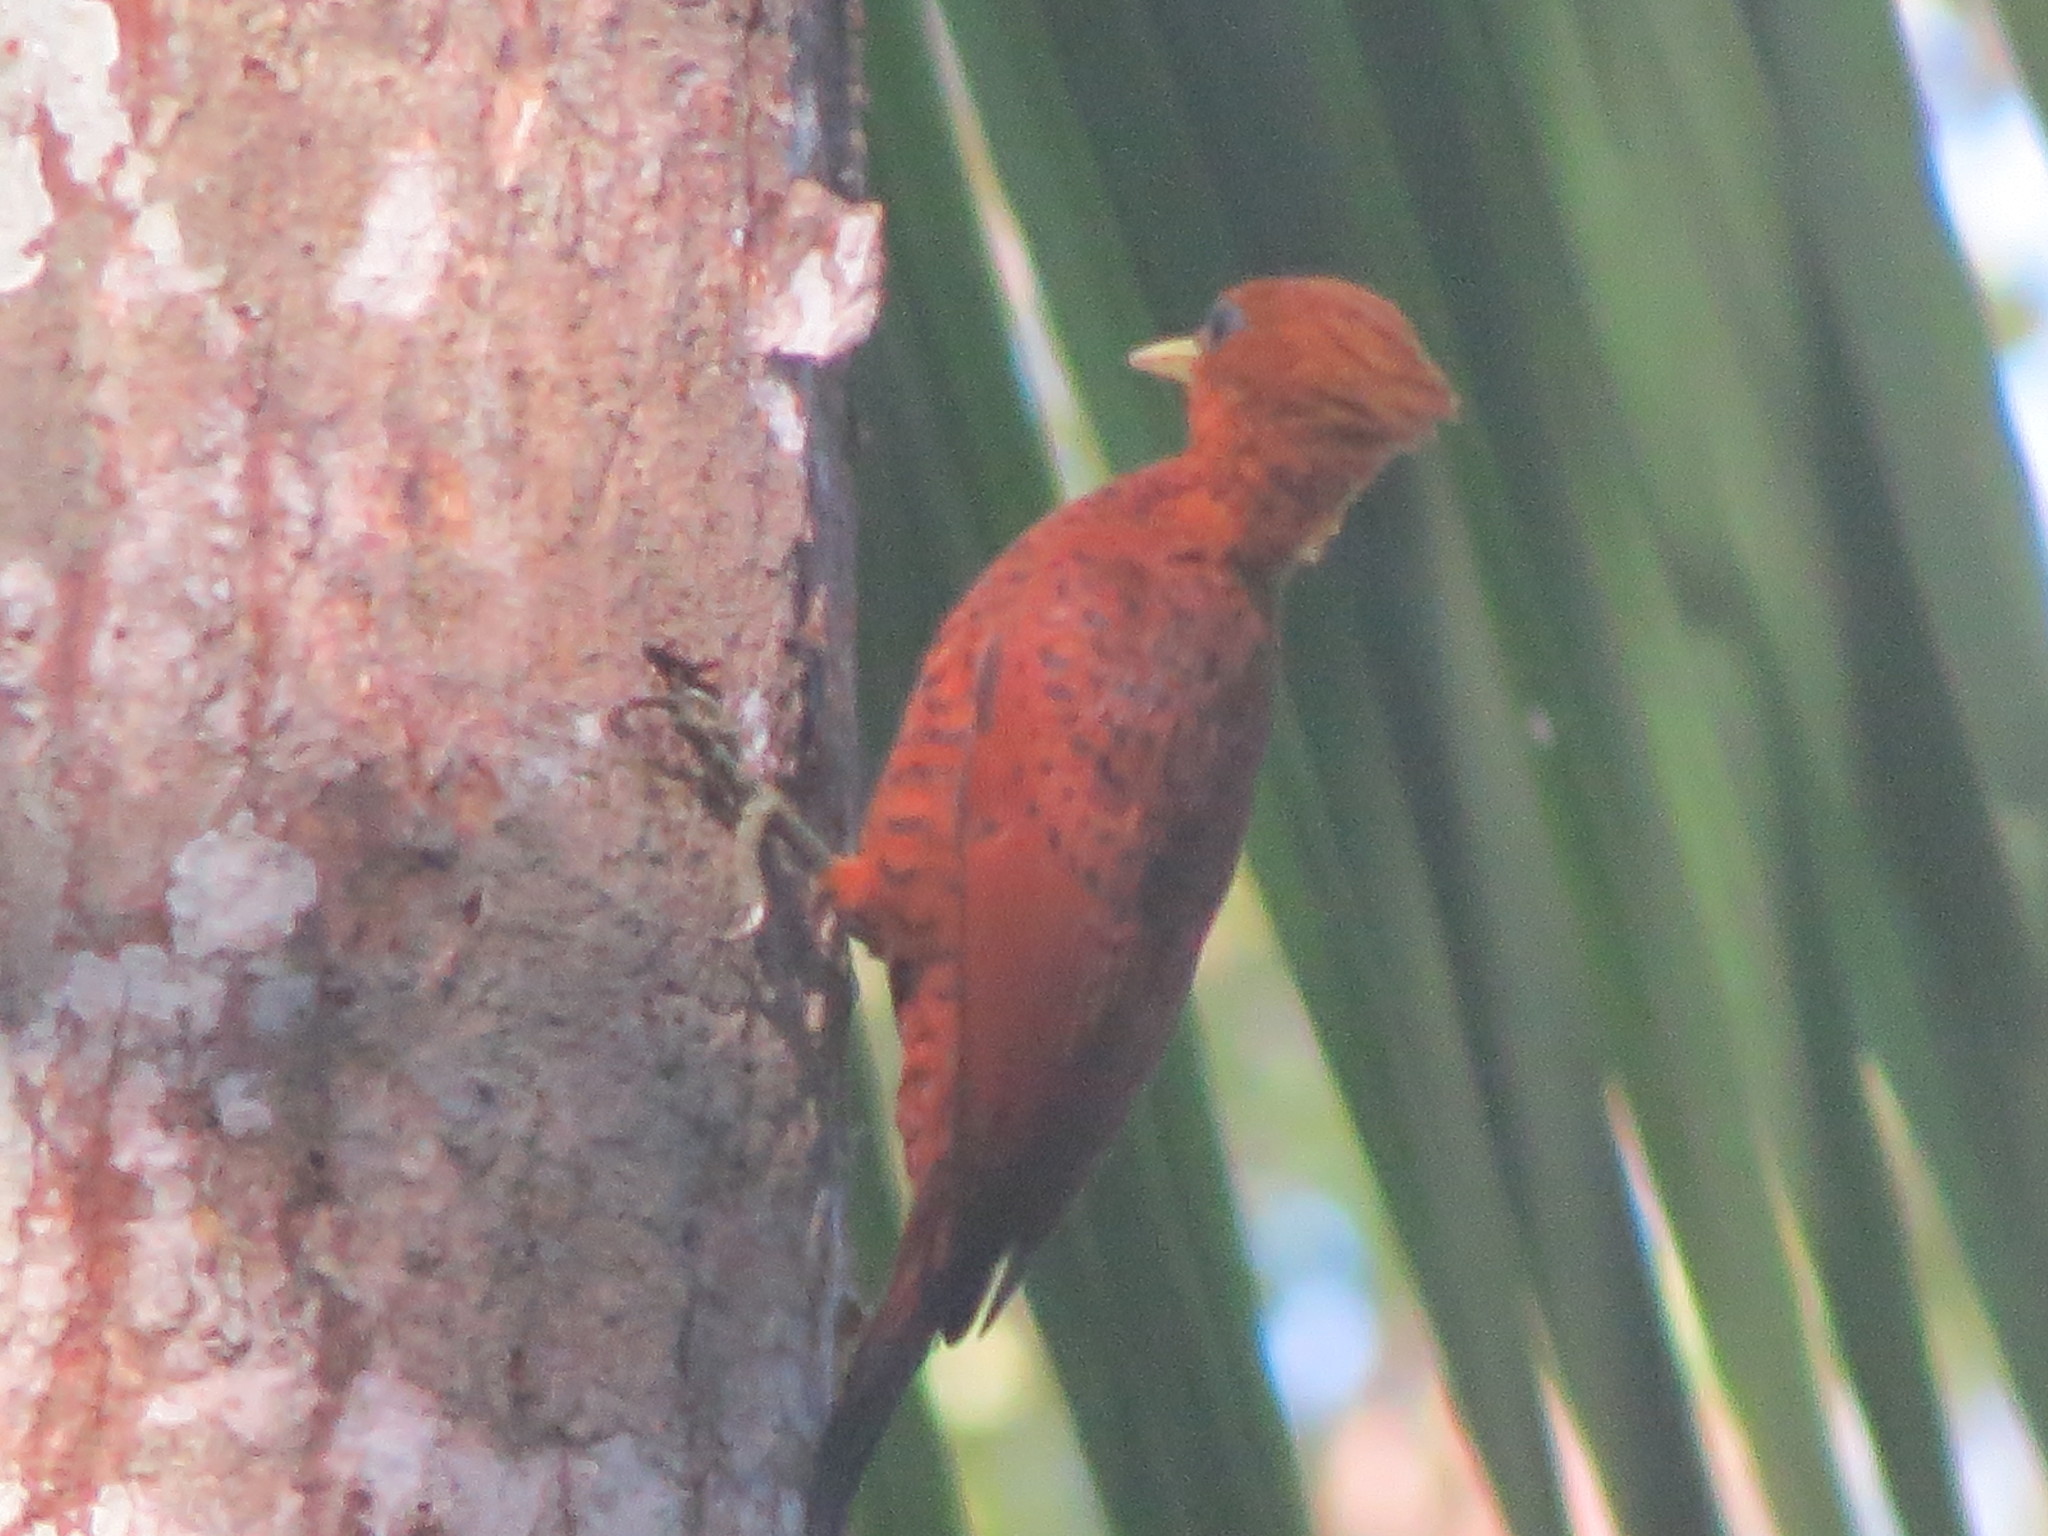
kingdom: Animalia
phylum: Chordata
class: Aves
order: Piciformes
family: Picidae
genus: Celeus
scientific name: Celeus castaneus
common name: Chestnut-colored woodpecker
